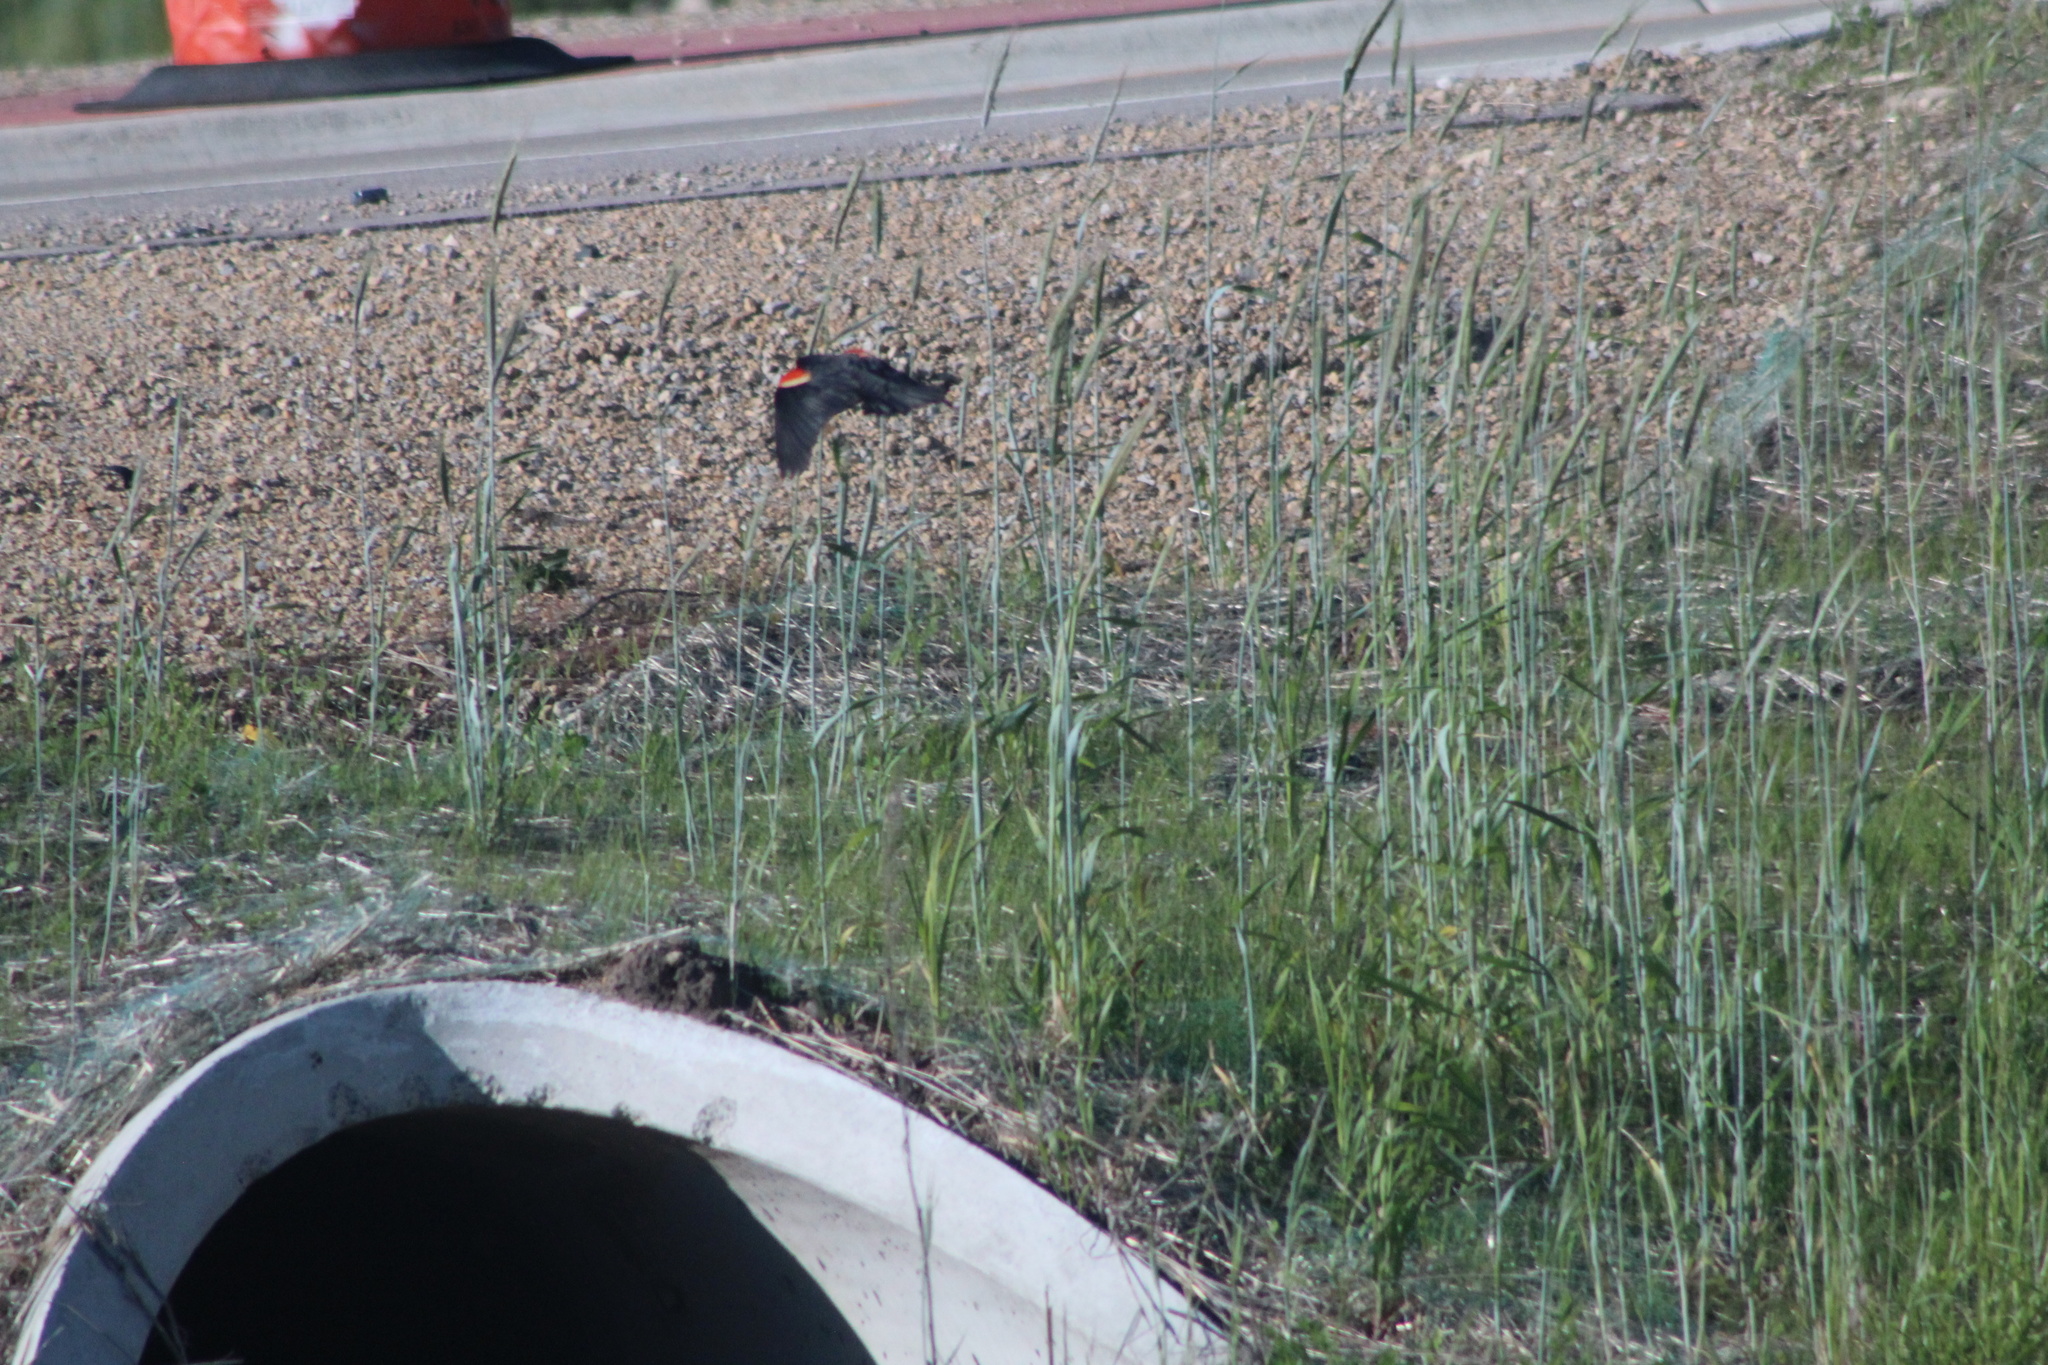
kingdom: Animalia
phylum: Chordata
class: Aves
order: Passeriformes
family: Icteridae
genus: Agelaius
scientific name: Agelaius phoeniceus
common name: Red-winged blackbird
